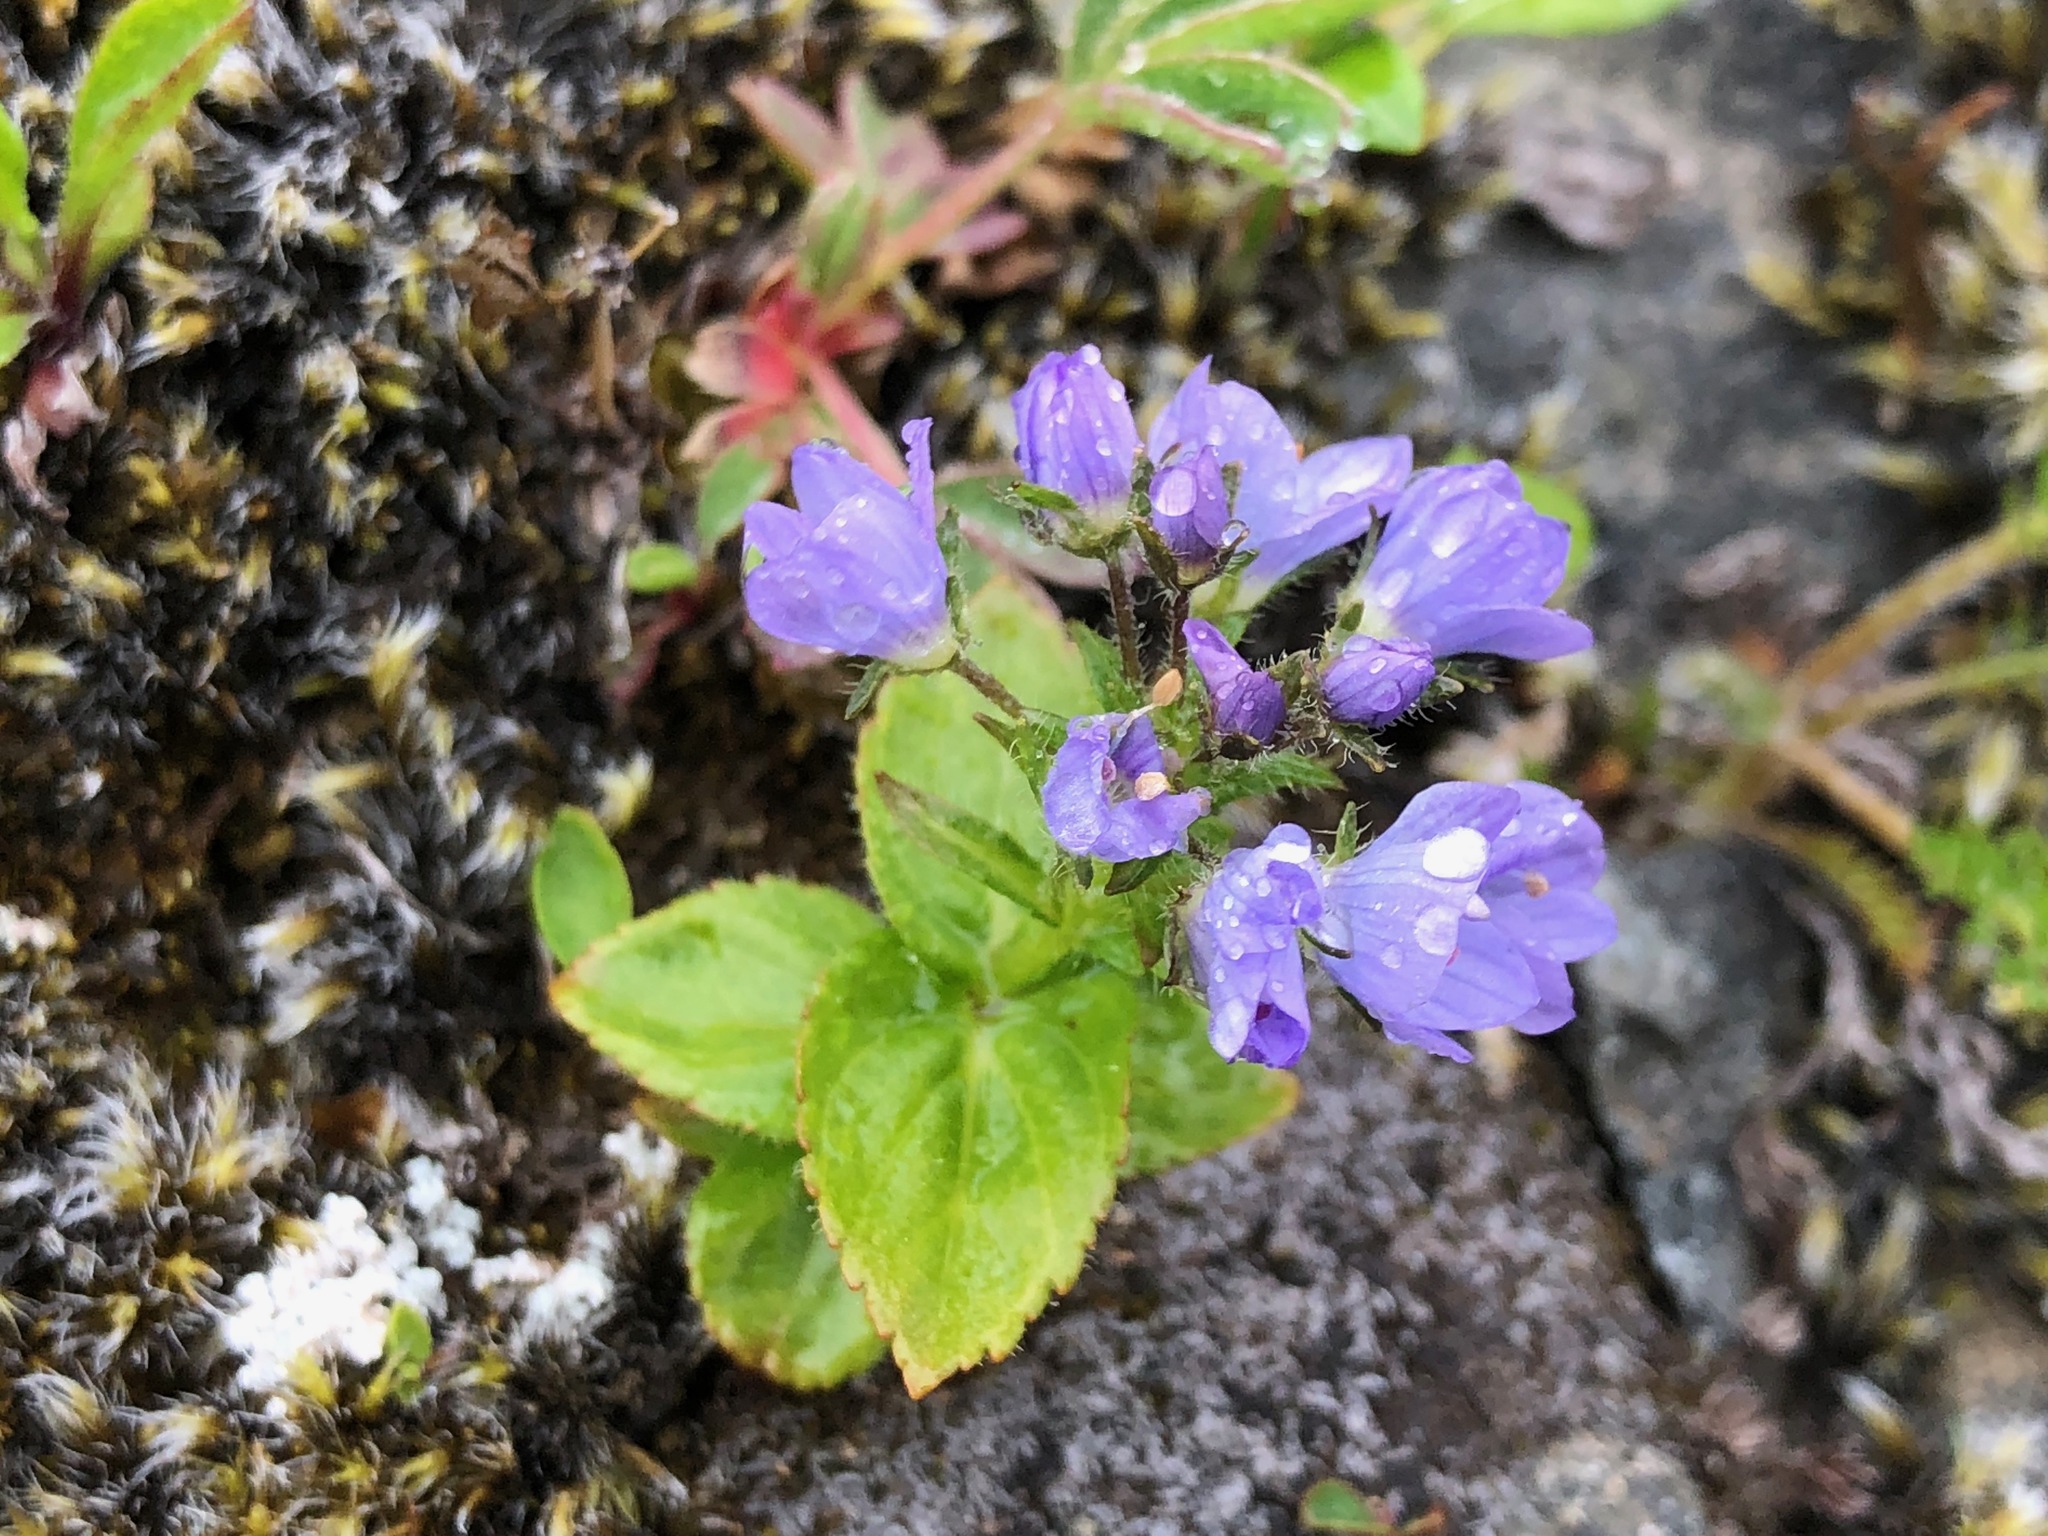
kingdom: Plantae
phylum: Tracheophyta
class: Magnoliopsida
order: Lamiales
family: Plantaginaceae
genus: Veronica
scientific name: Veronica stelleri
